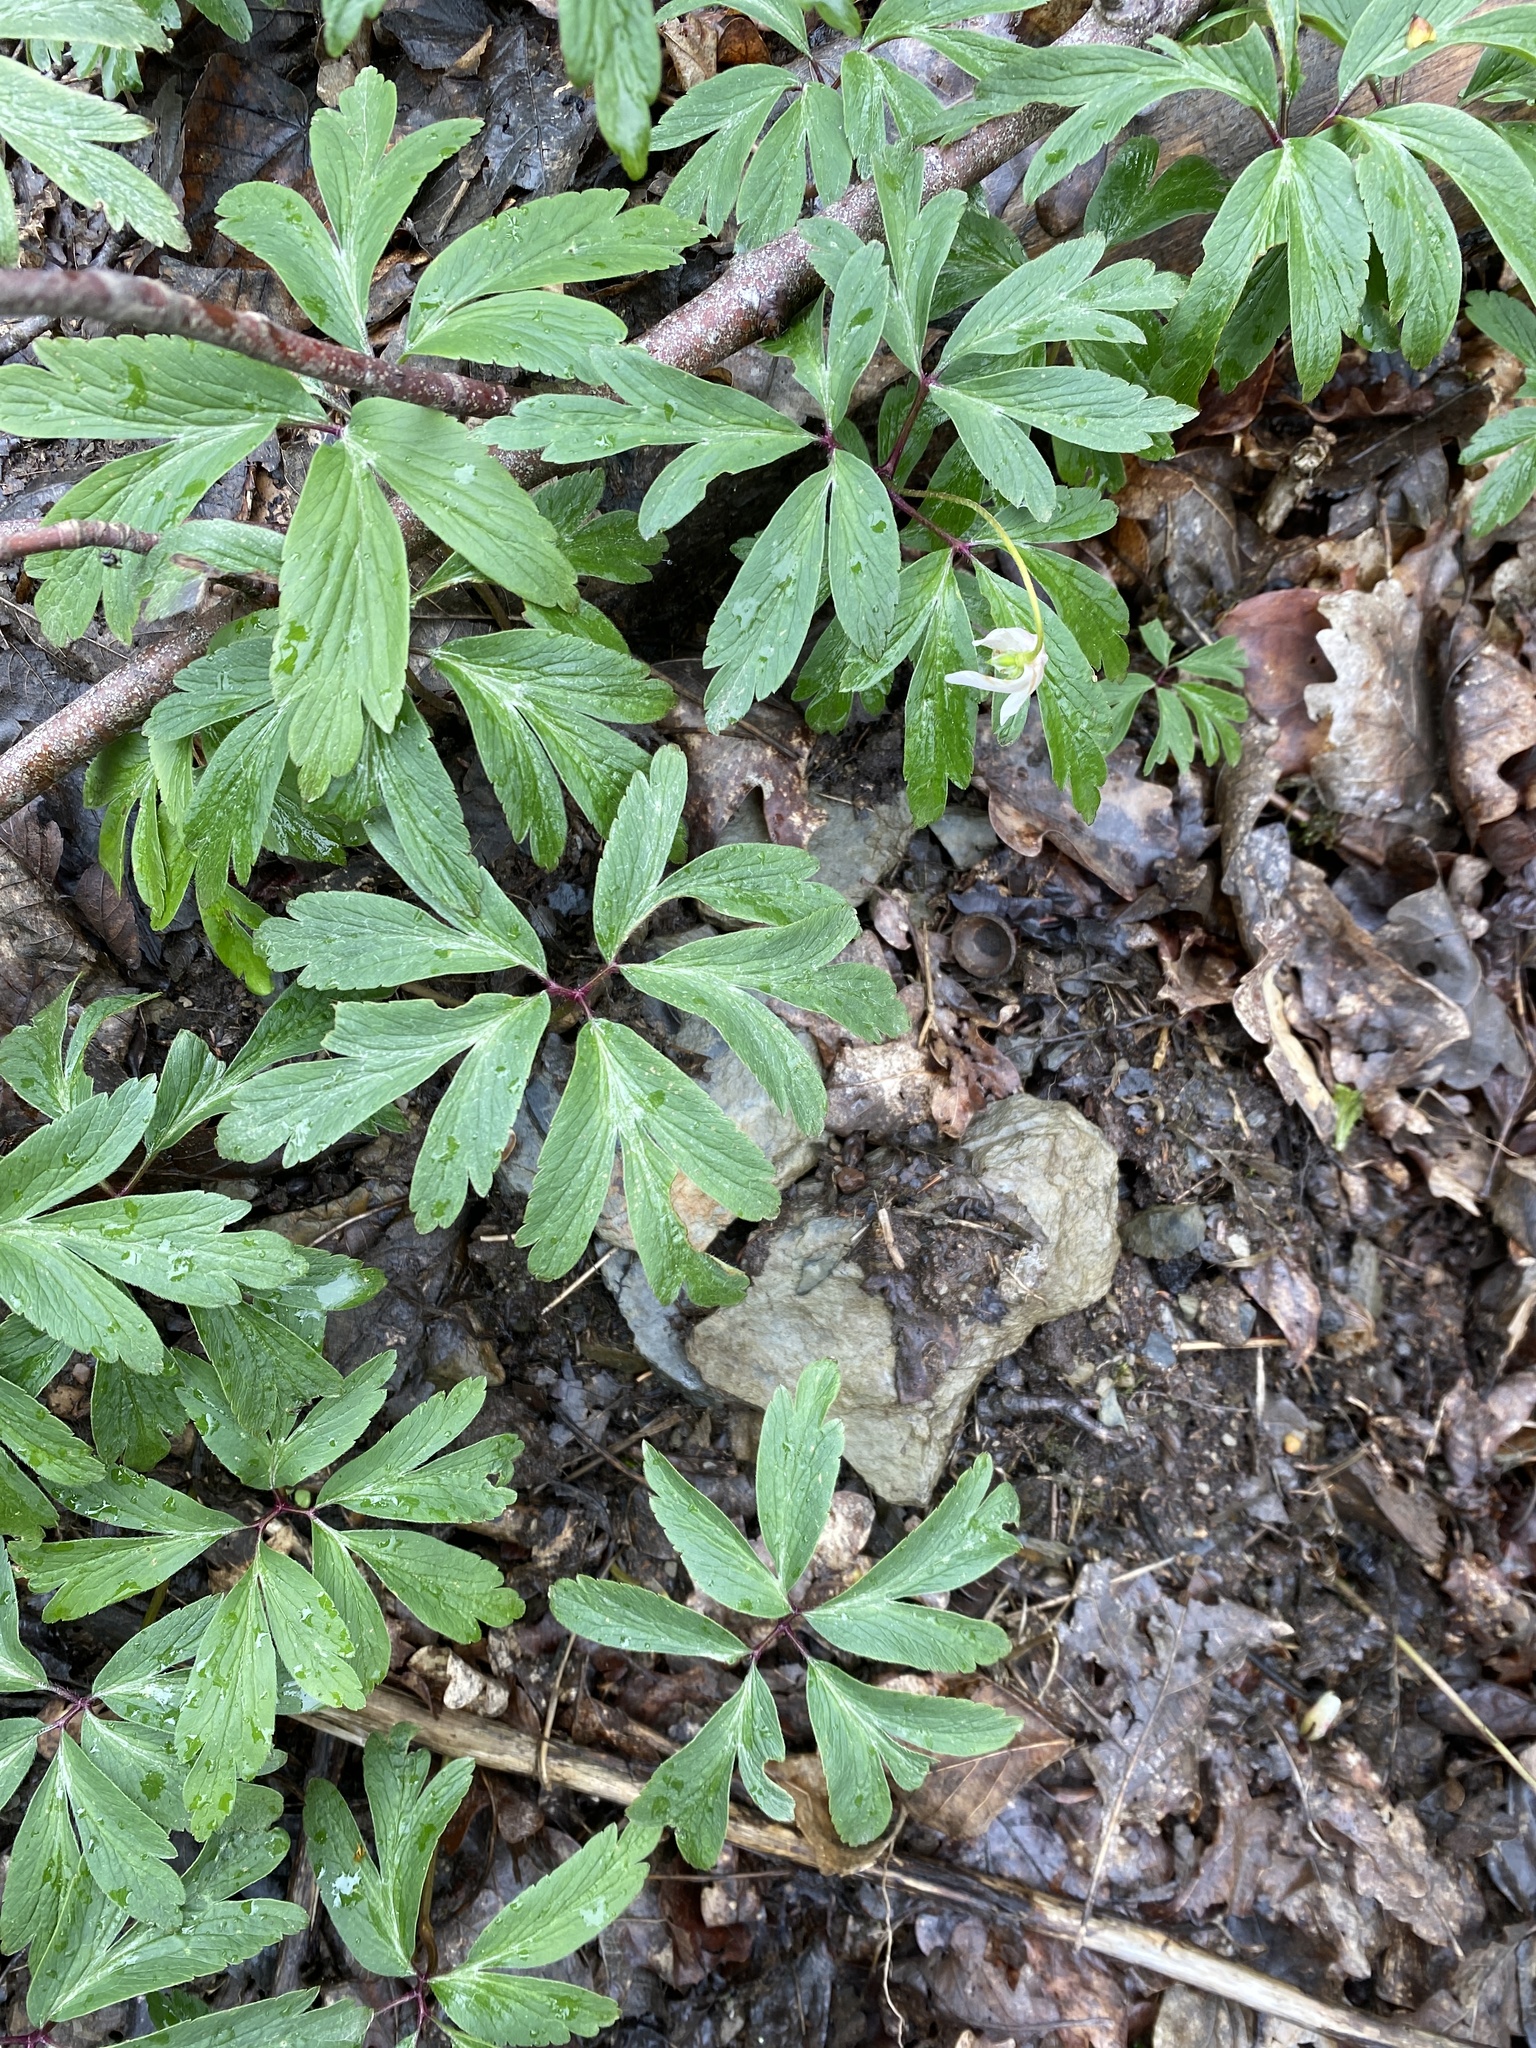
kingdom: Plantae
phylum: Tracheophyta
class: Magnoliopsida
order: Ranunculales
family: Ranunculaceae
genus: Anemone
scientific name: Anemone nemorosa
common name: Wood anemone
